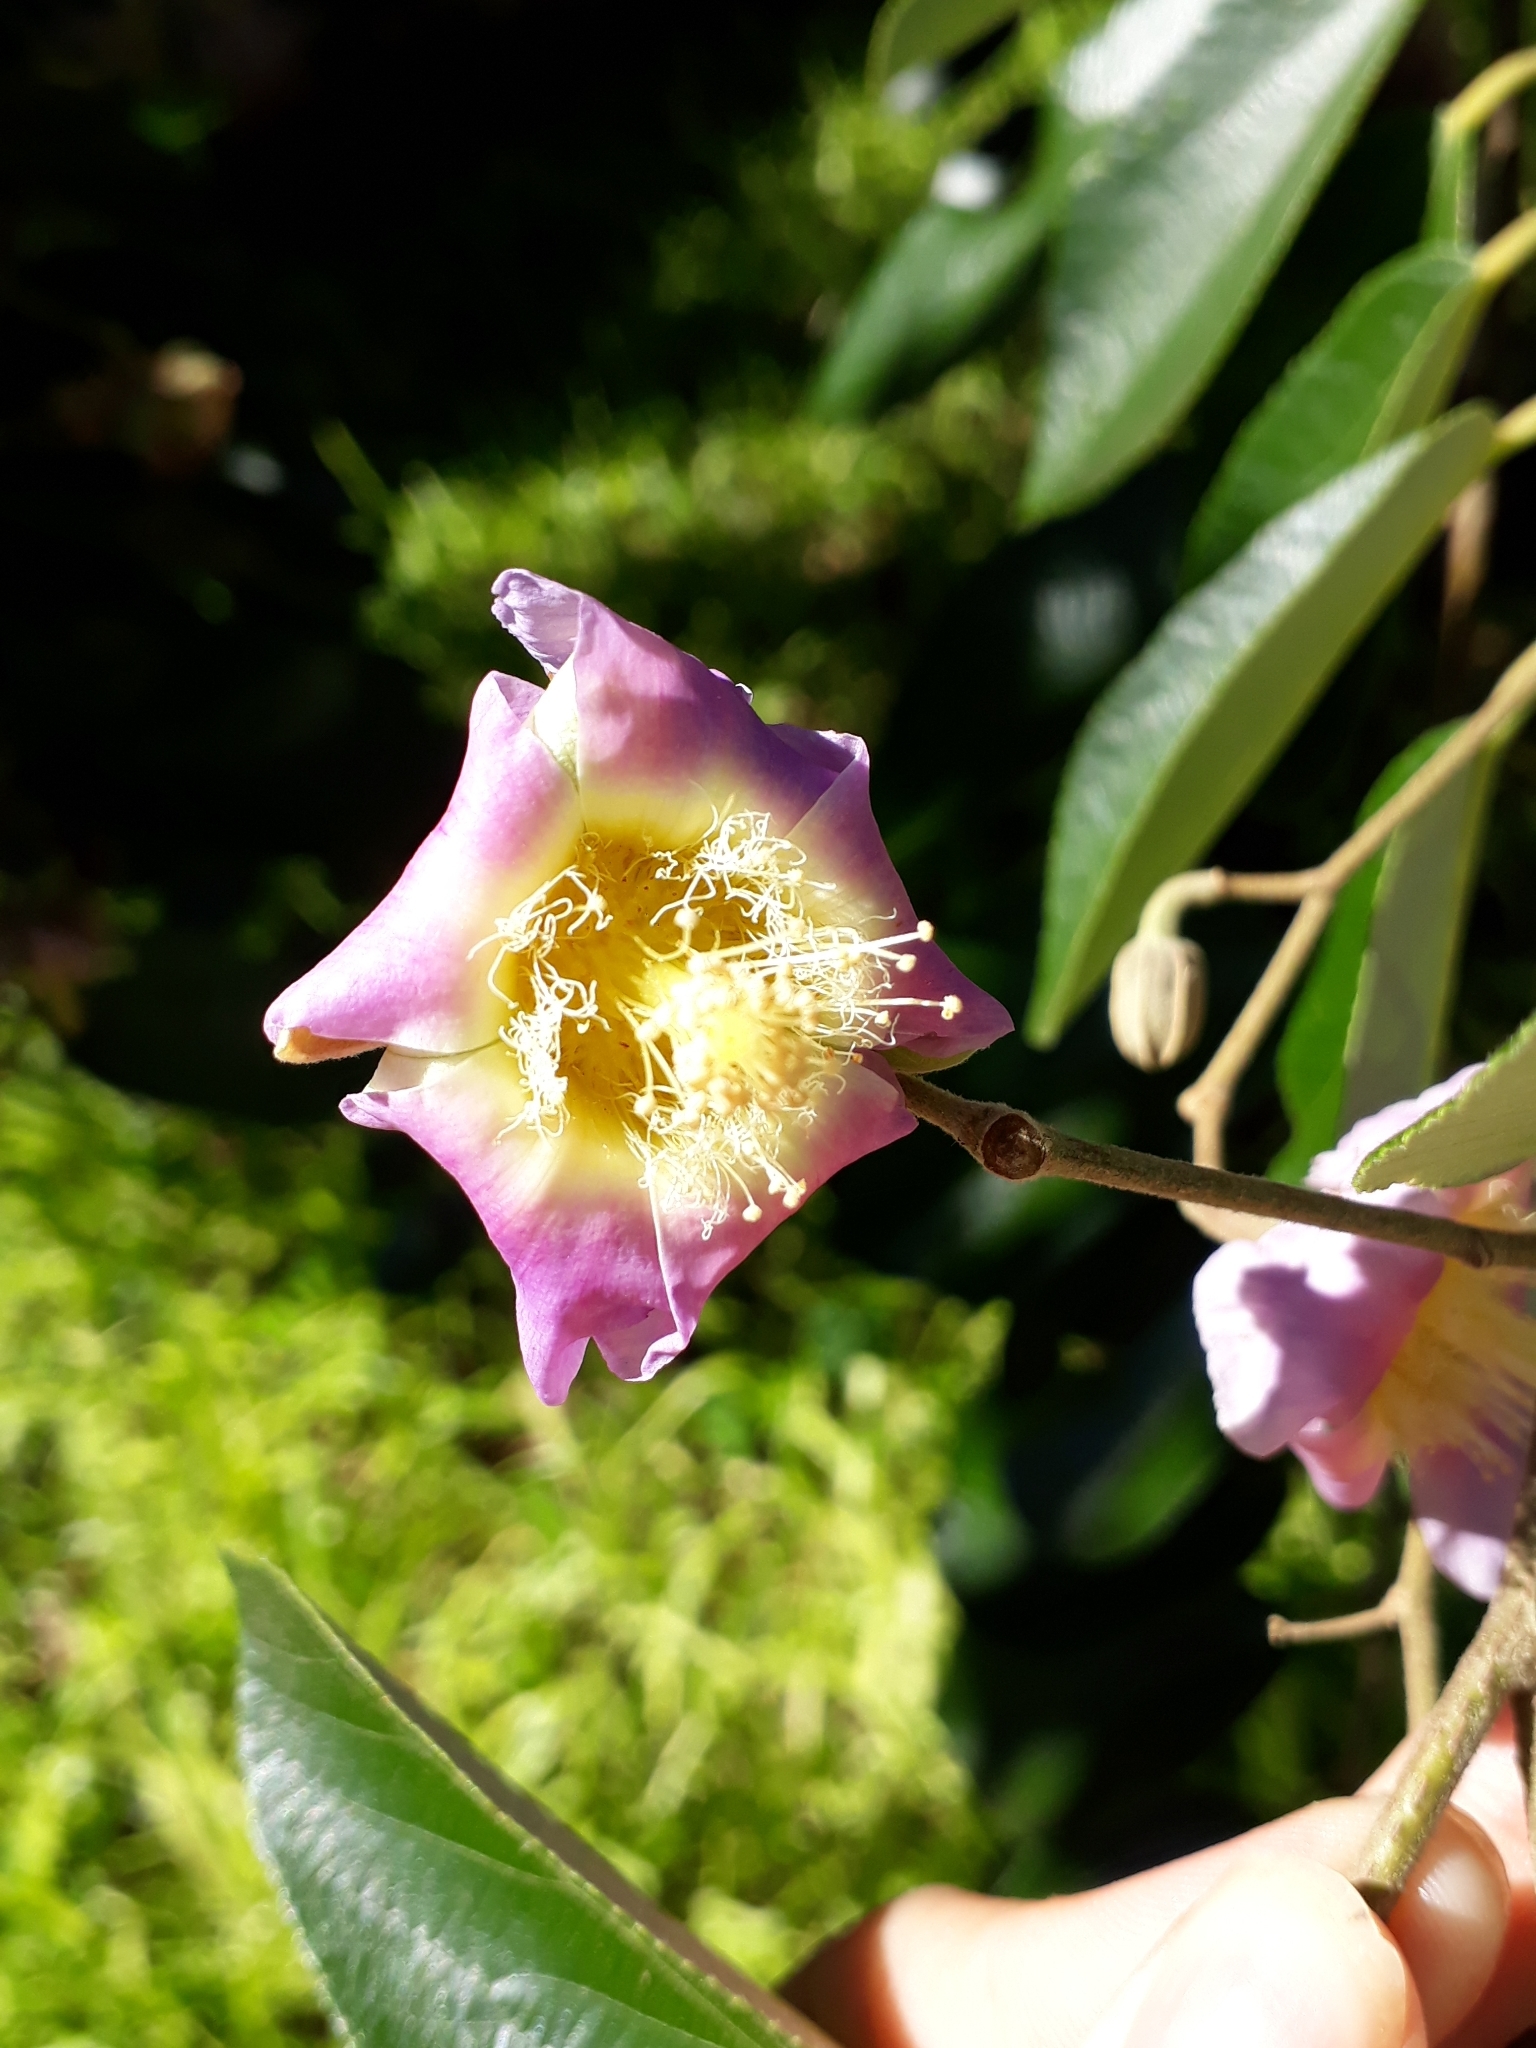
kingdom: Plantae
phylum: Tracheophyta
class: Magnoliopsida
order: Malvales
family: Malvaceae
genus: Luehea
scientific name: Luehea divaricata
